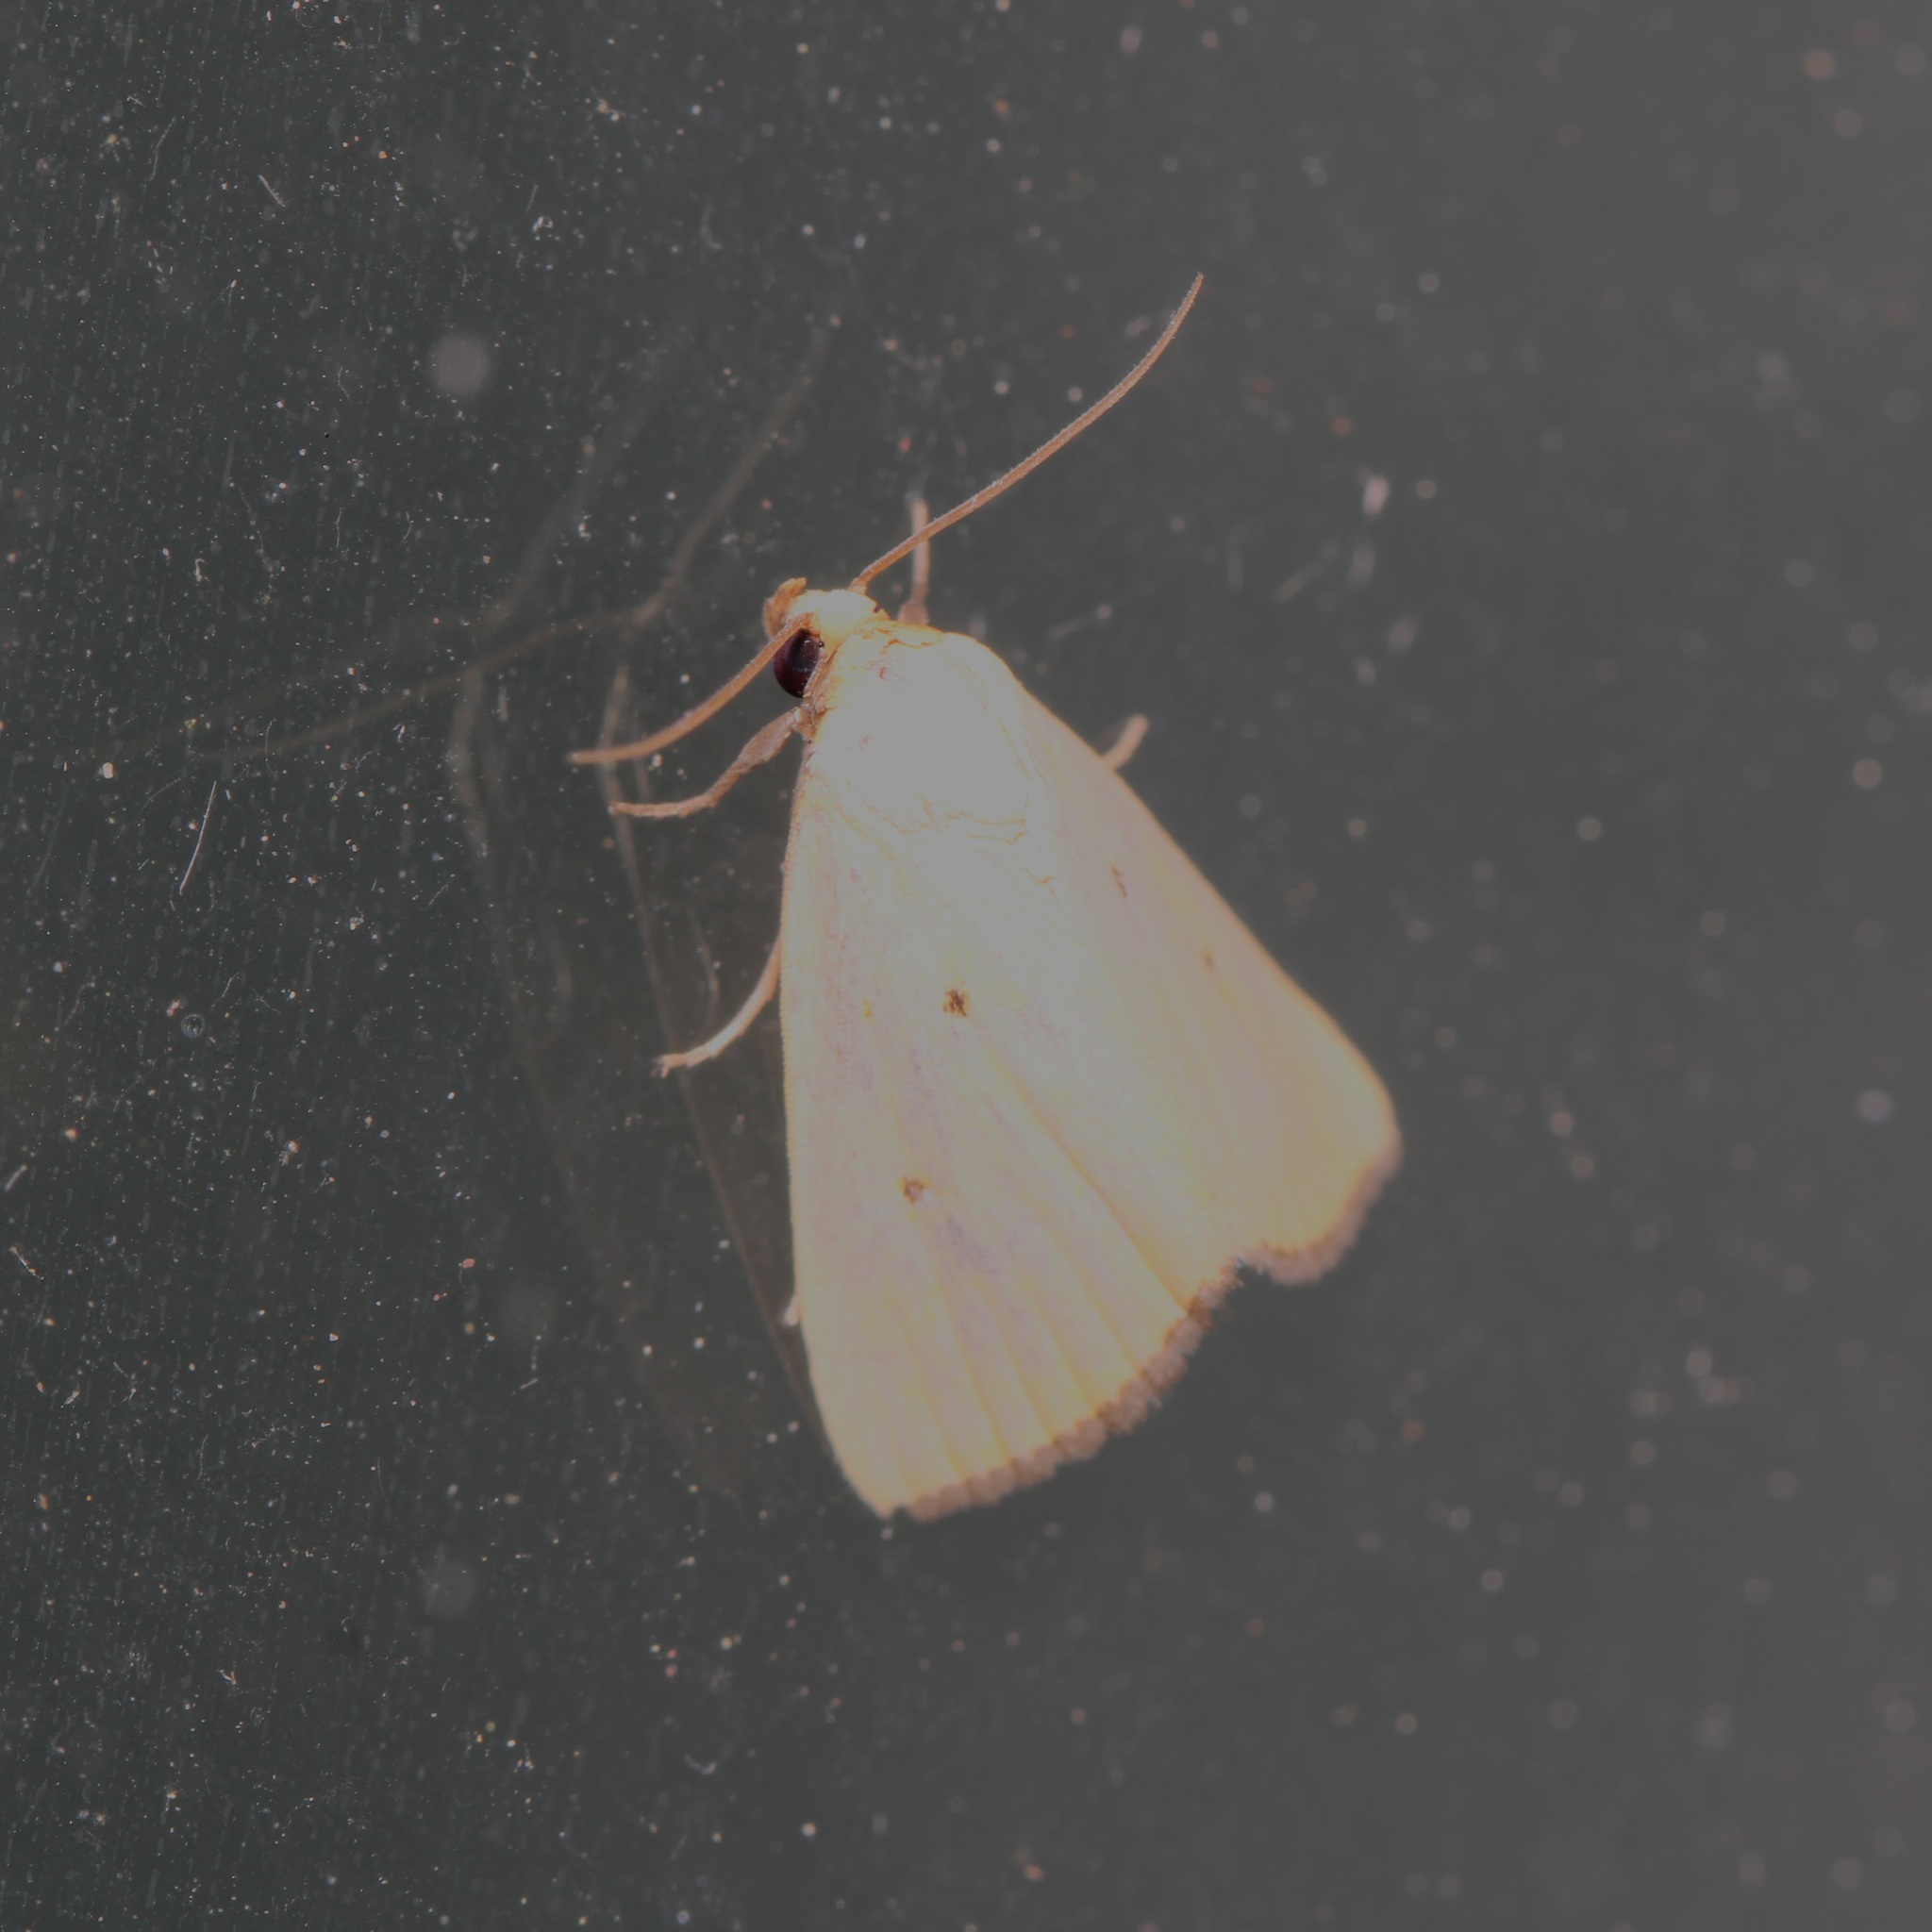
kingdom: Animalia
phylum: Arthropoda
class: Insecta
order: Lepidoptera
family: Noctuidae
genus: Marimatha
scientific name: Marimatha nigrofimbria
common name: Black-bordered lemon moth
